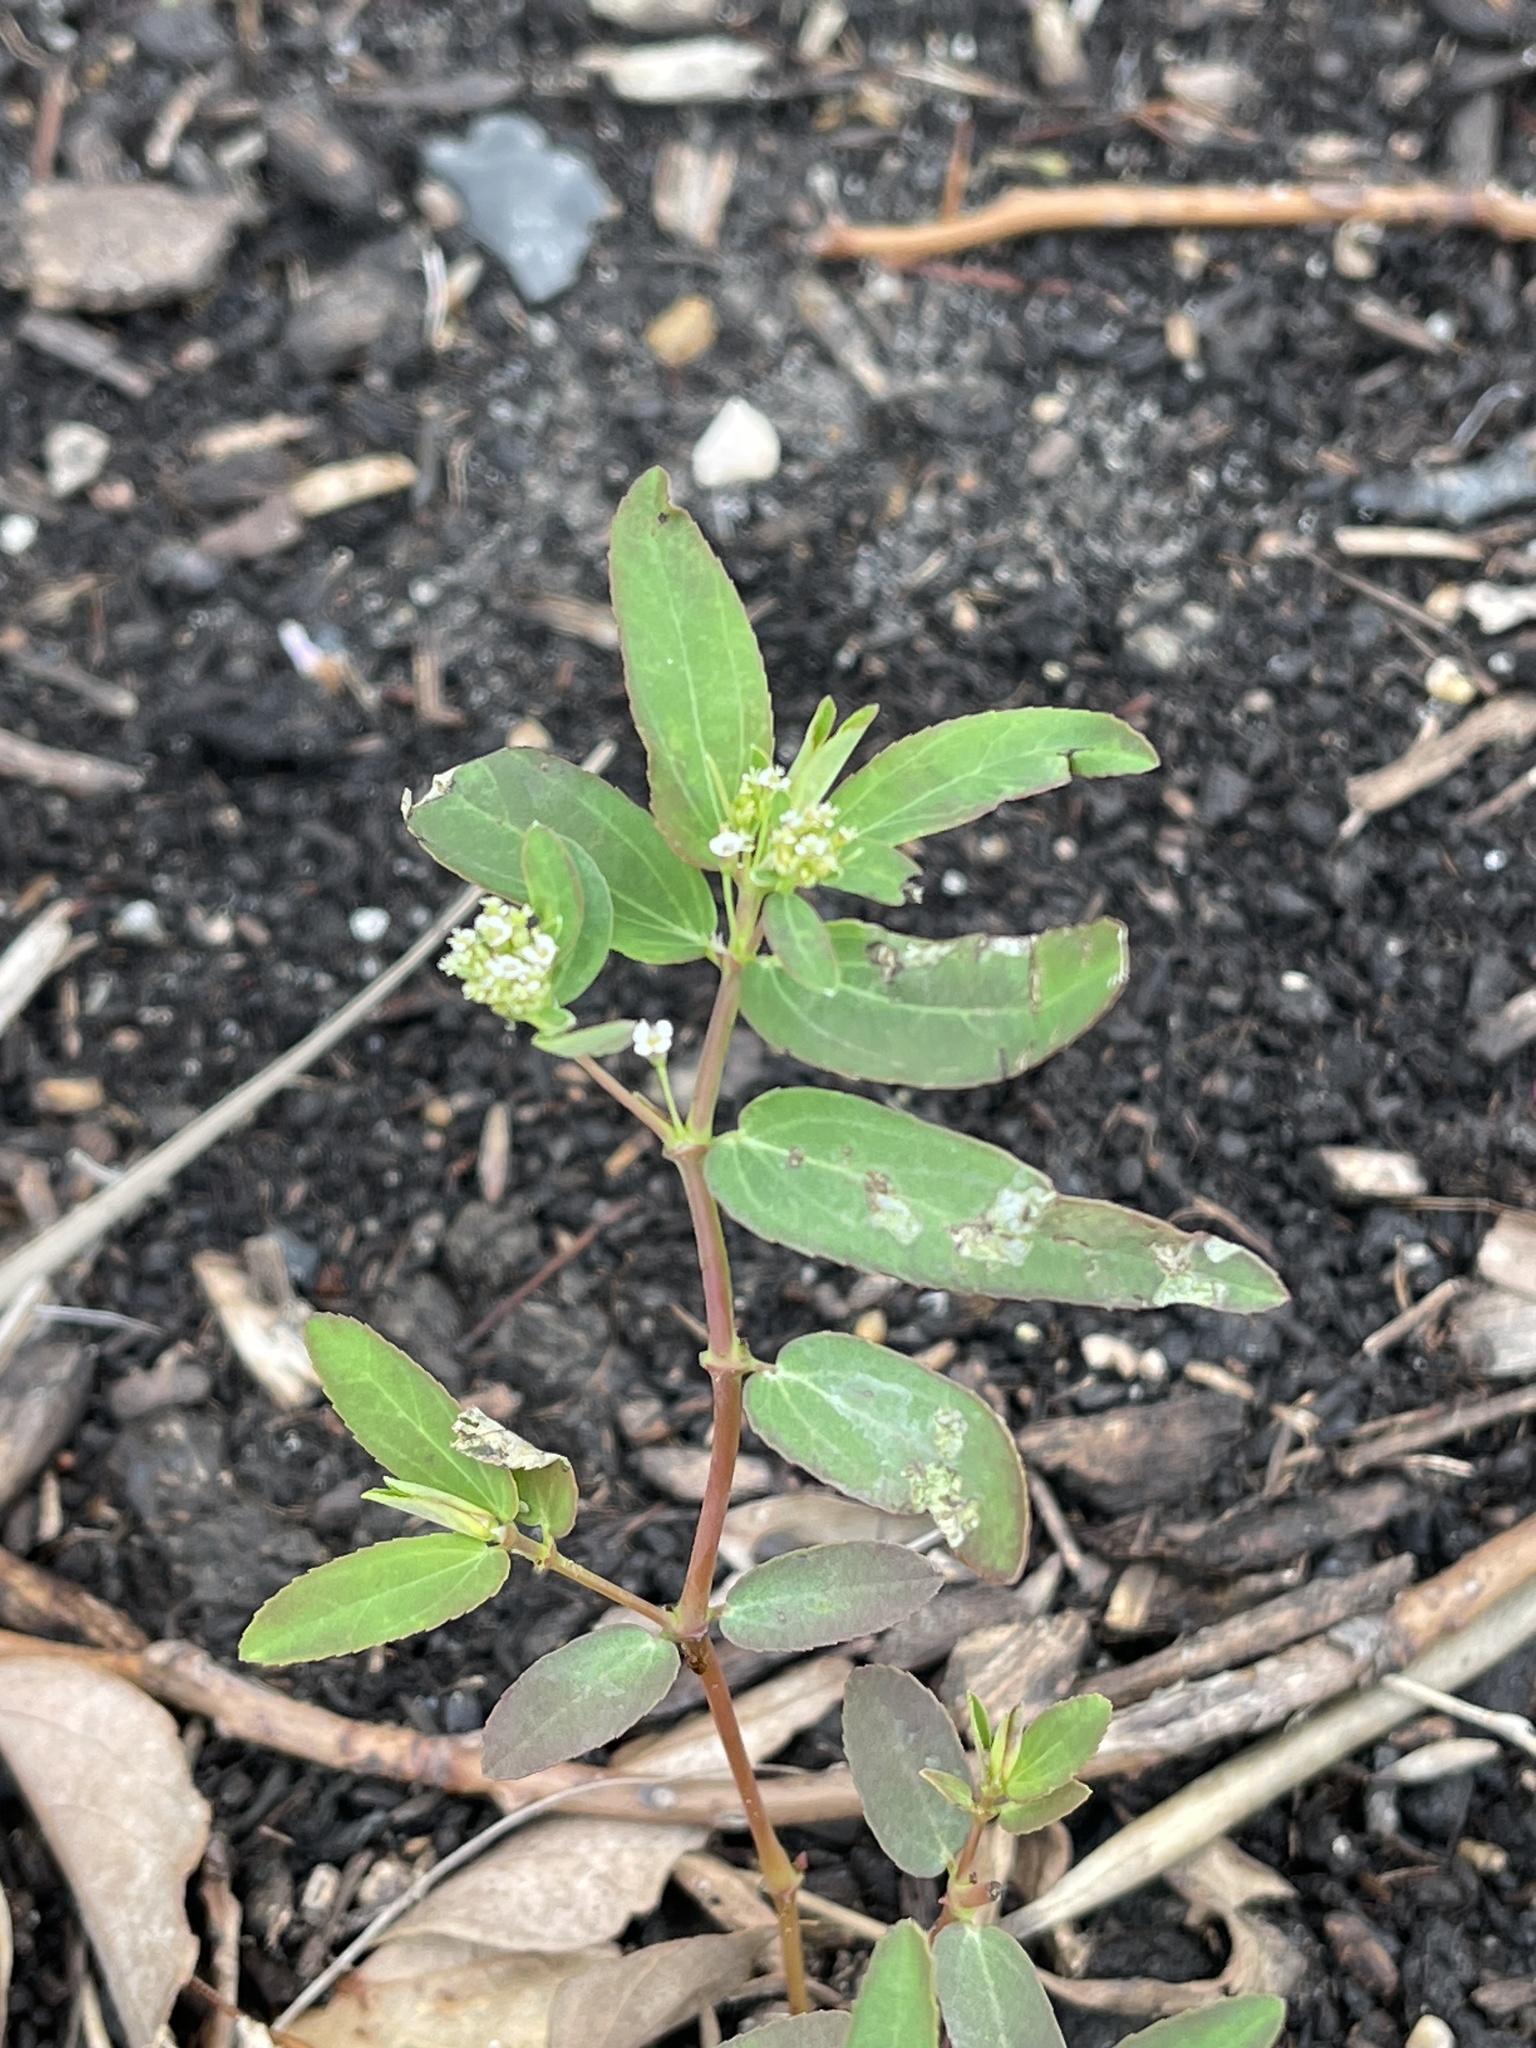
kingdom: Plantae
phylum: Tracheophyta
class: Magnoliopsida
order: Malpighiales
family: Euphorbiaceae
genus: Euphorbia
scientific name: Euphorbia hypericifolia
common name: Graceful sandmat
